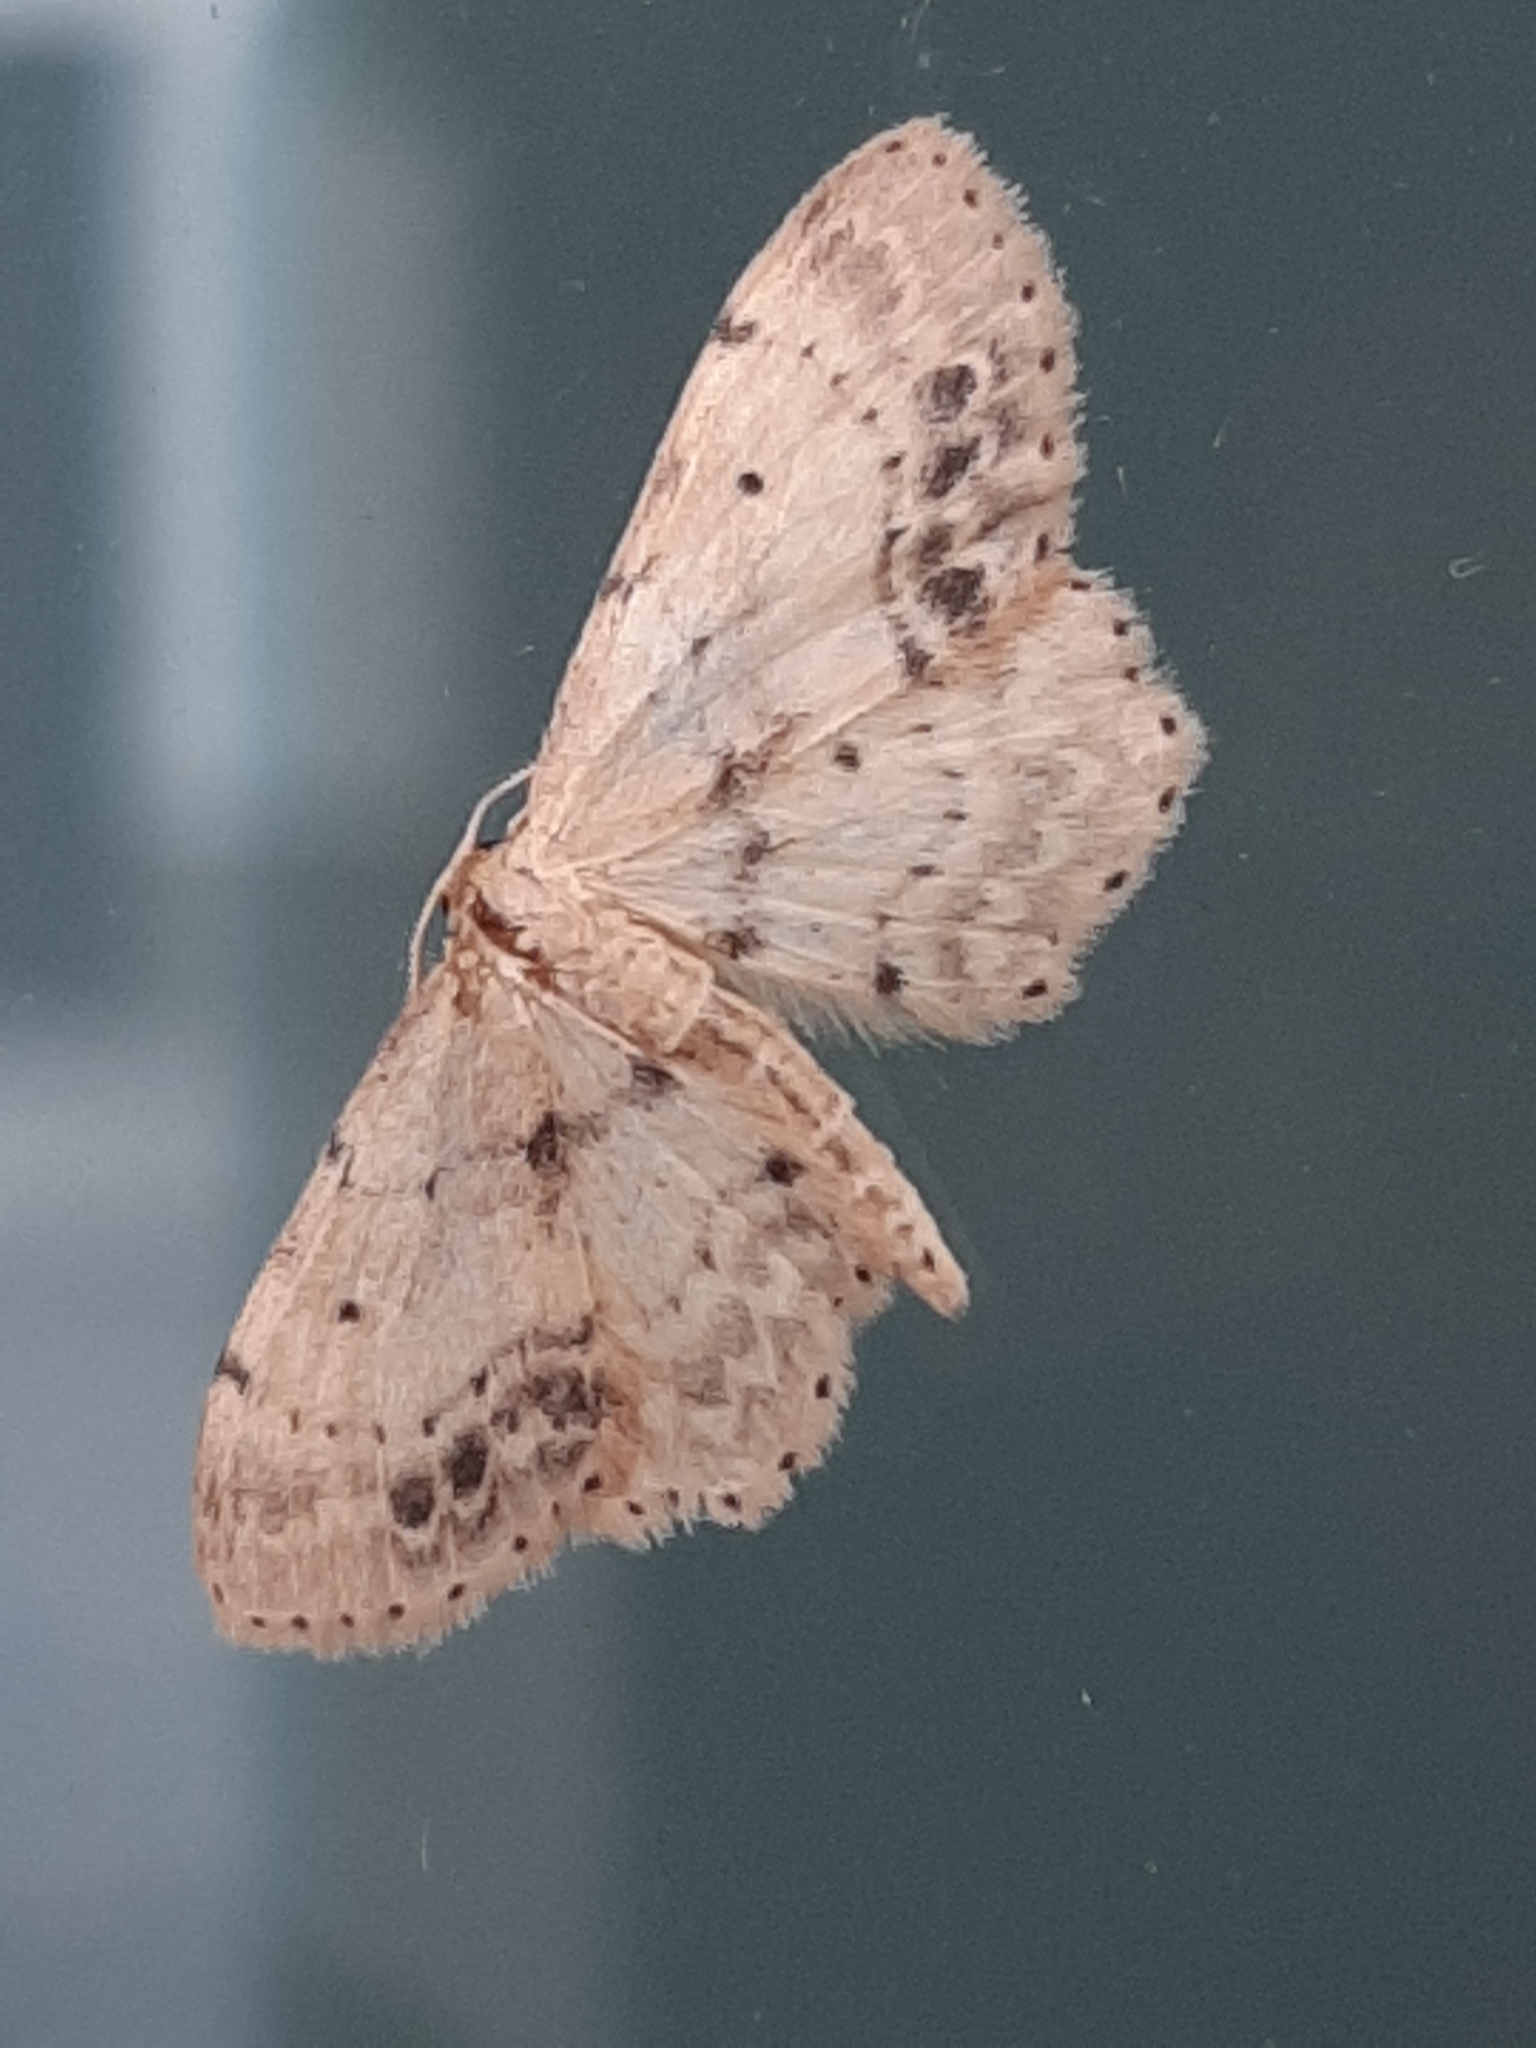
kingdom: Animalia
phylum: Arthropoda
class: Insecta
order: Lepidoptera
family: Geometridae
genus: Idaea
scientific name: Idaea dimidiata
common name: Single-dotted wave
